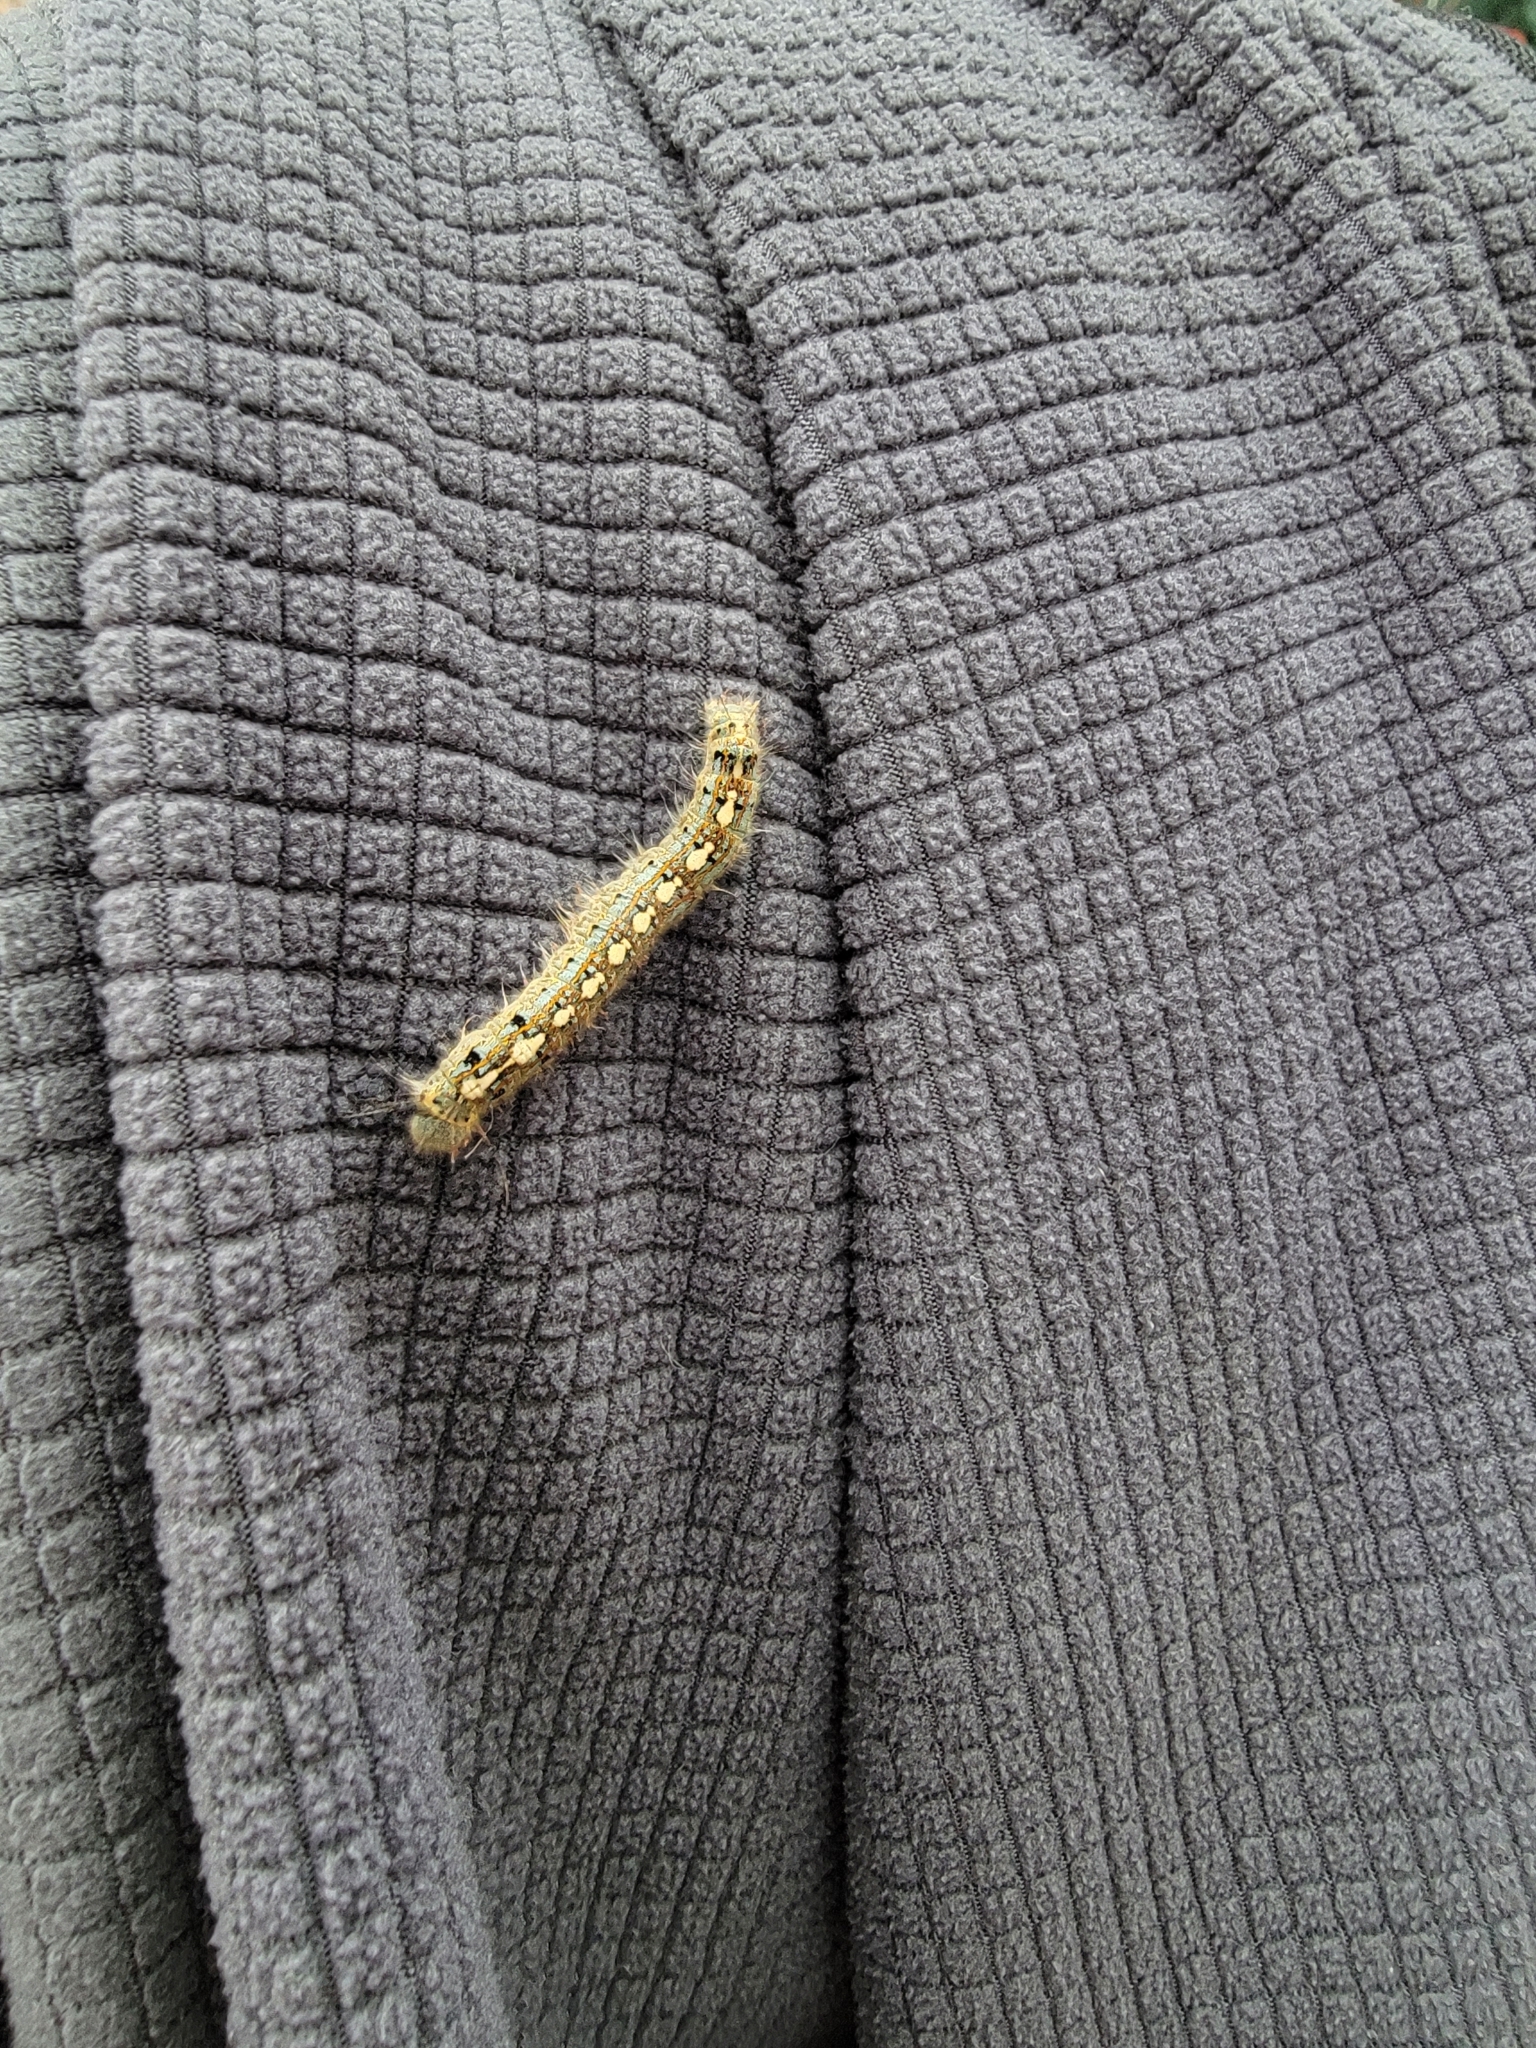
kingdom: Animalia
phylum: Arthropoda
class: Insecta
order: Lepidoptera
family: Lasiocampidae
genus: Malacosoma
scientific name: Malacosoma disstria
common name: Forest tent caterpillar
